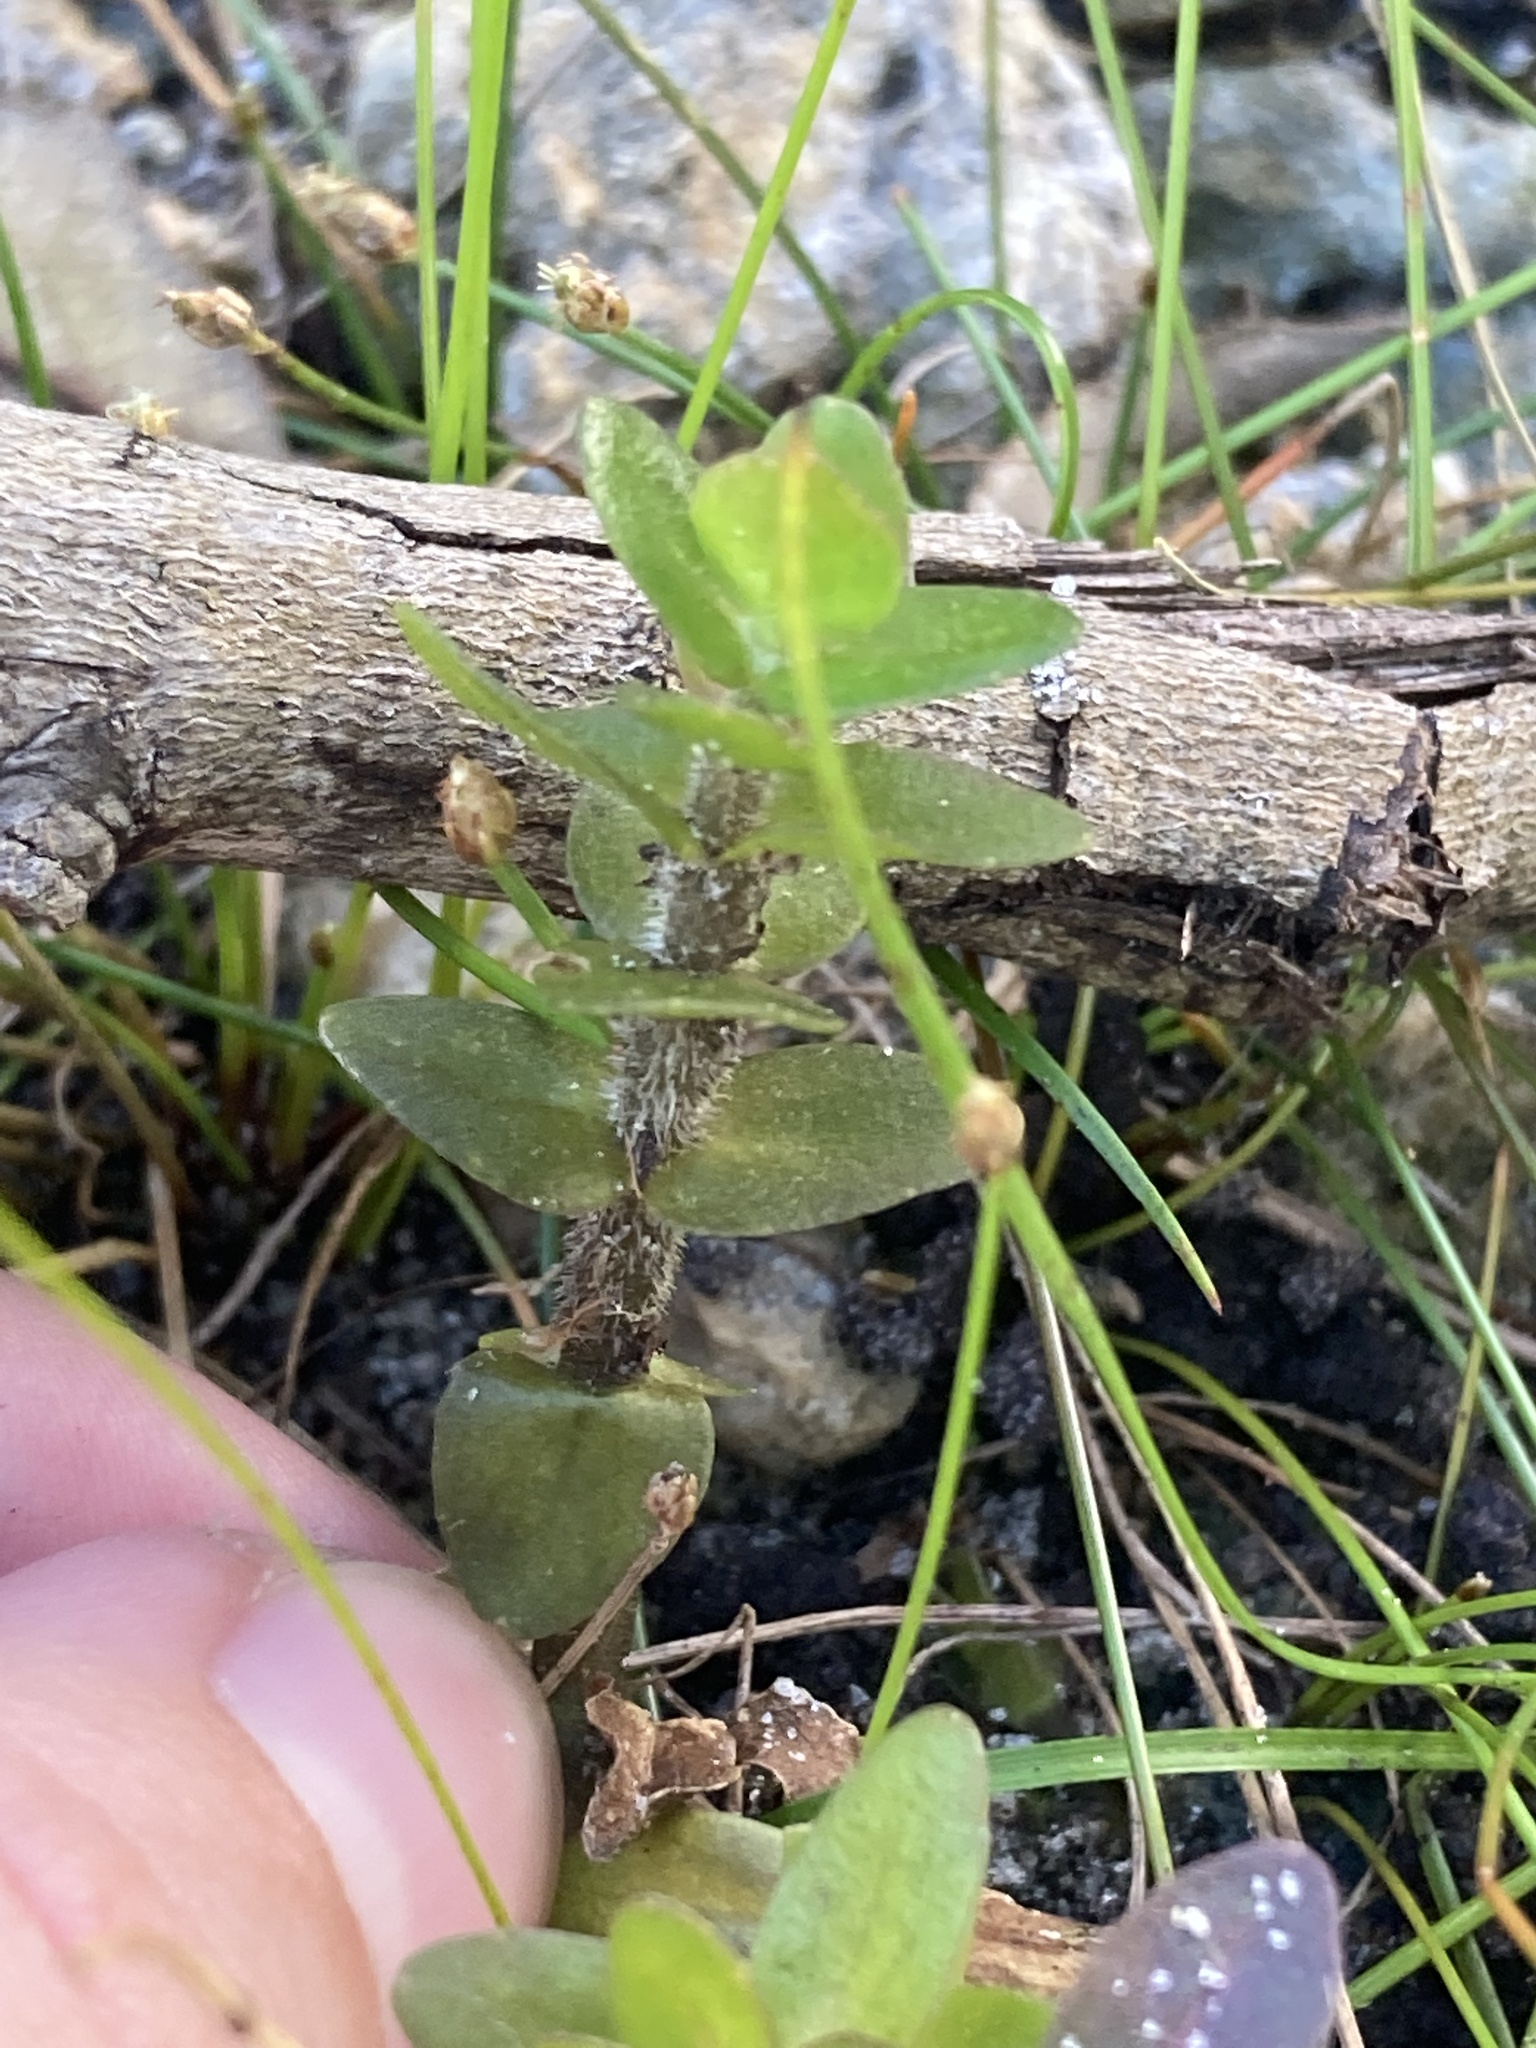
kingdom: Plantae
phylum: Tracheophyta
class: Magnoliopsida
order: Lamiales
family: Plantaginaceae
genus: Bacopa
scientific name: Bacopa caroliniana
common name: Lemon bacopa
